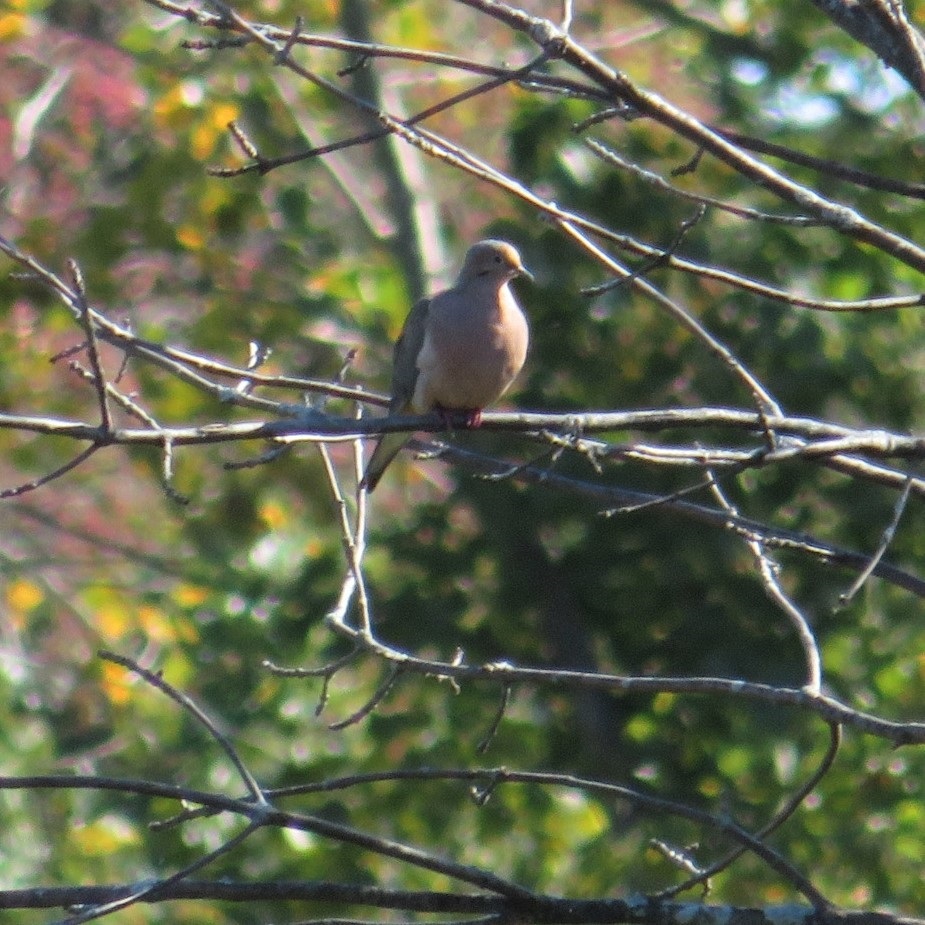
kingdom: Animalia
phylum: Chordata
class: Aves
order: Columbiformes
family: Columbidae
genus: Zenaida
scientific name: Zenaida macroura
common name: Mourning dove
